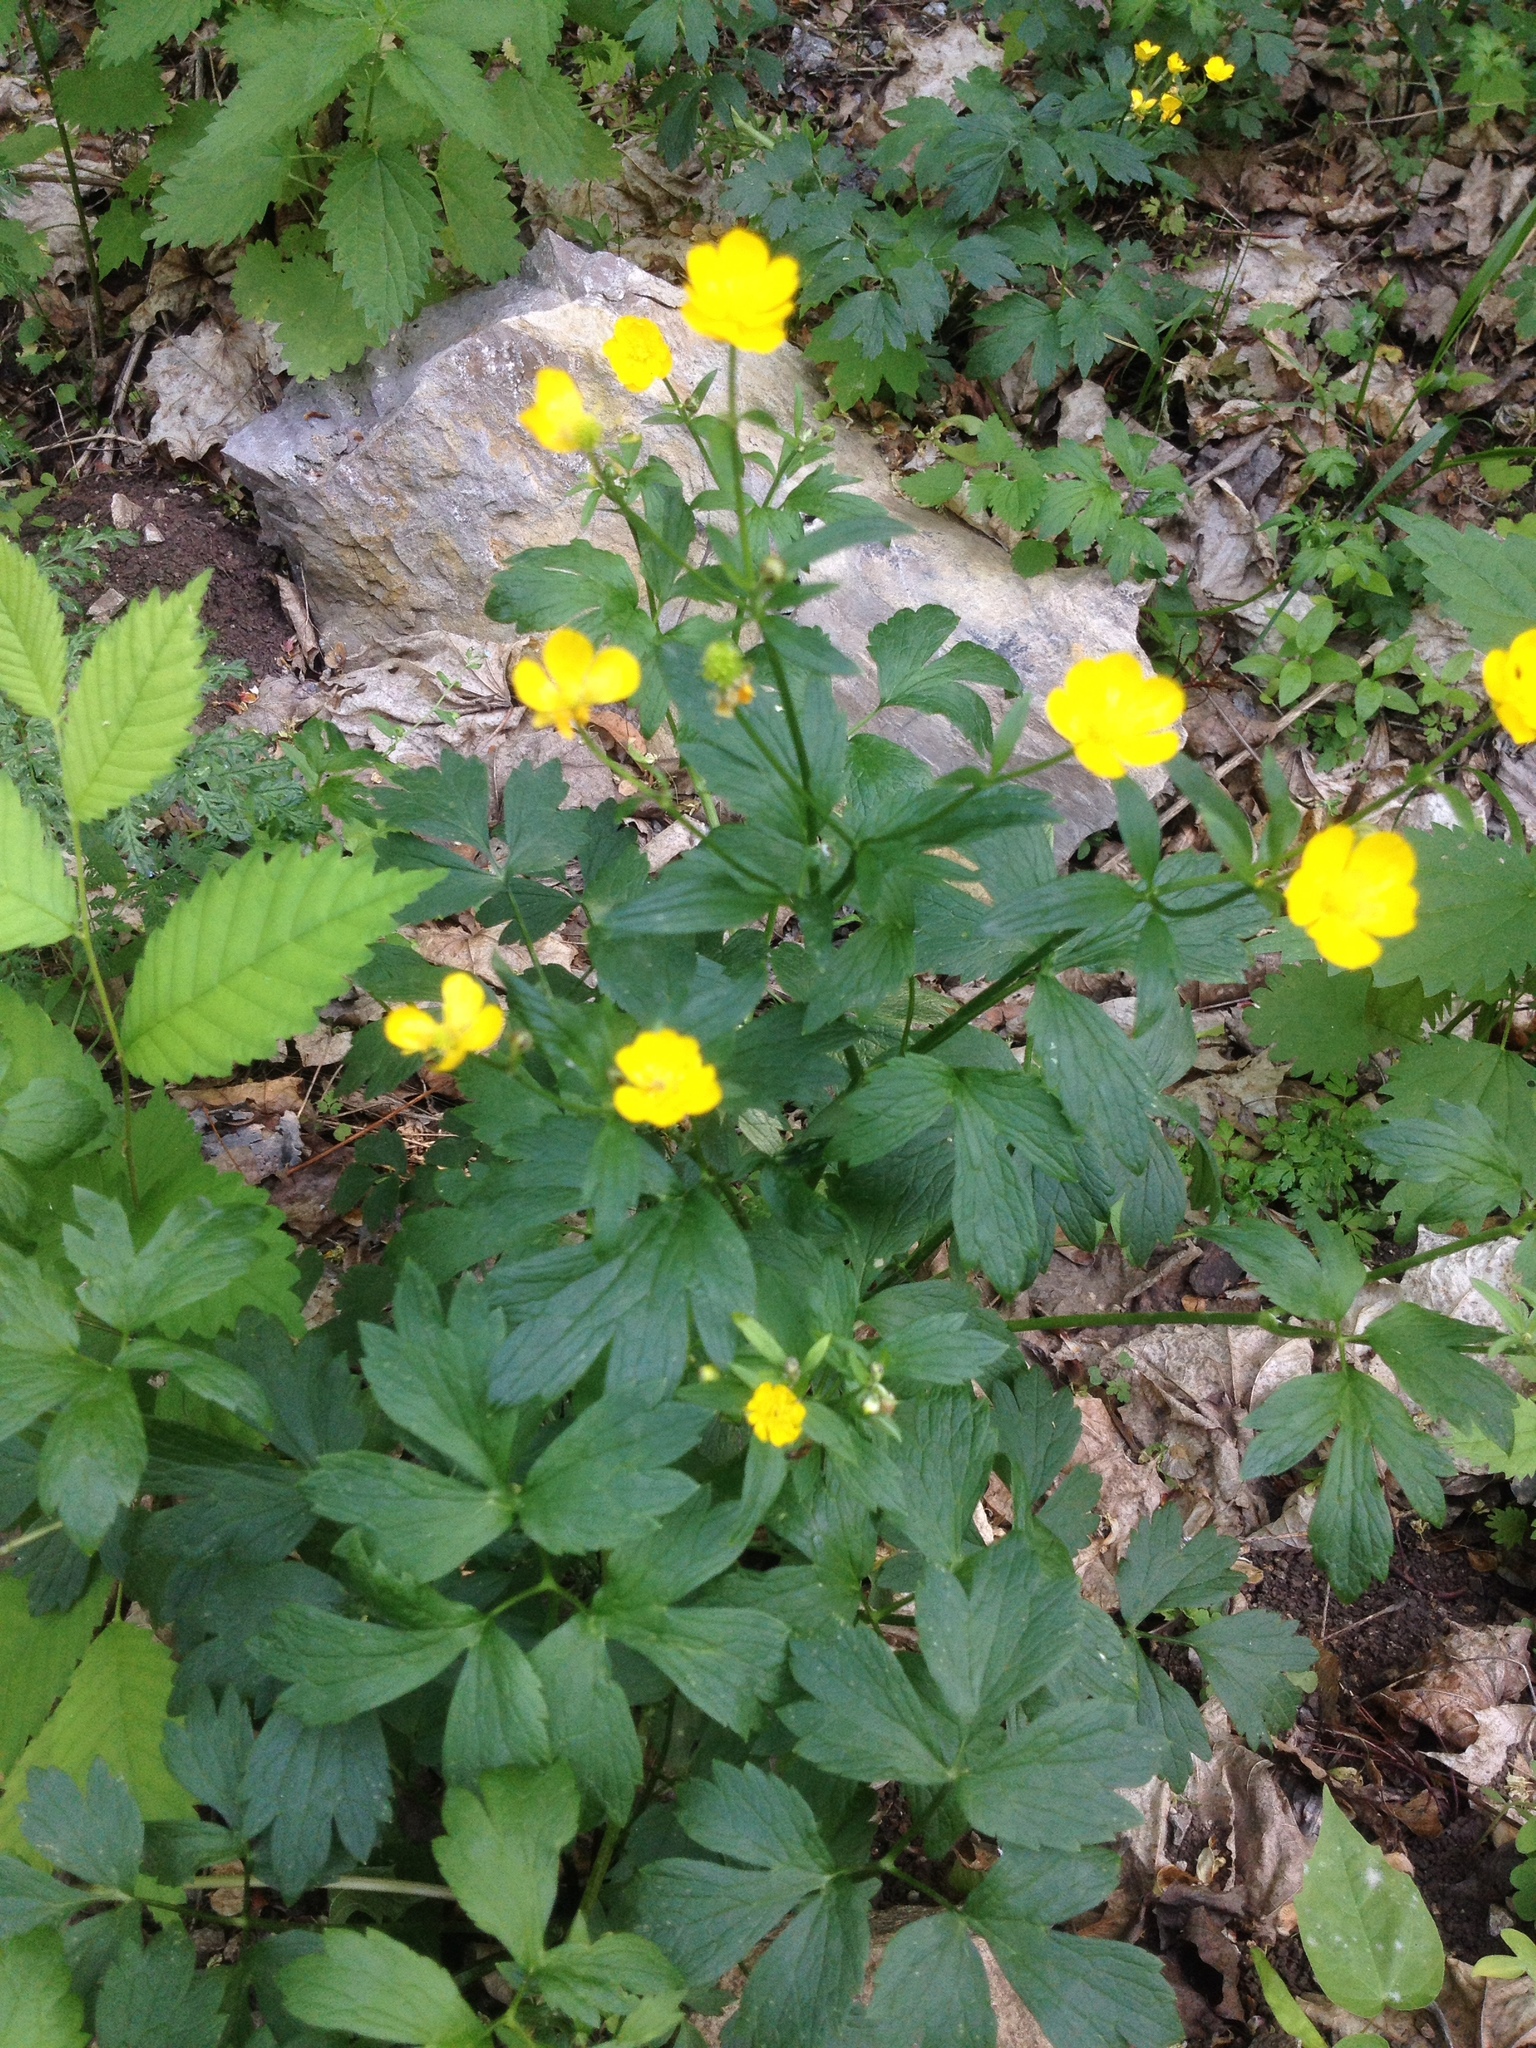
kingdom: Plantae
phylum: Tracheophyta
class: Magnoliopsida
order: Ranunculales
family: Ranunculaceae
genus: Ranunculus
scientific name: Ranunculus repens
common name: Creeping buttercup
